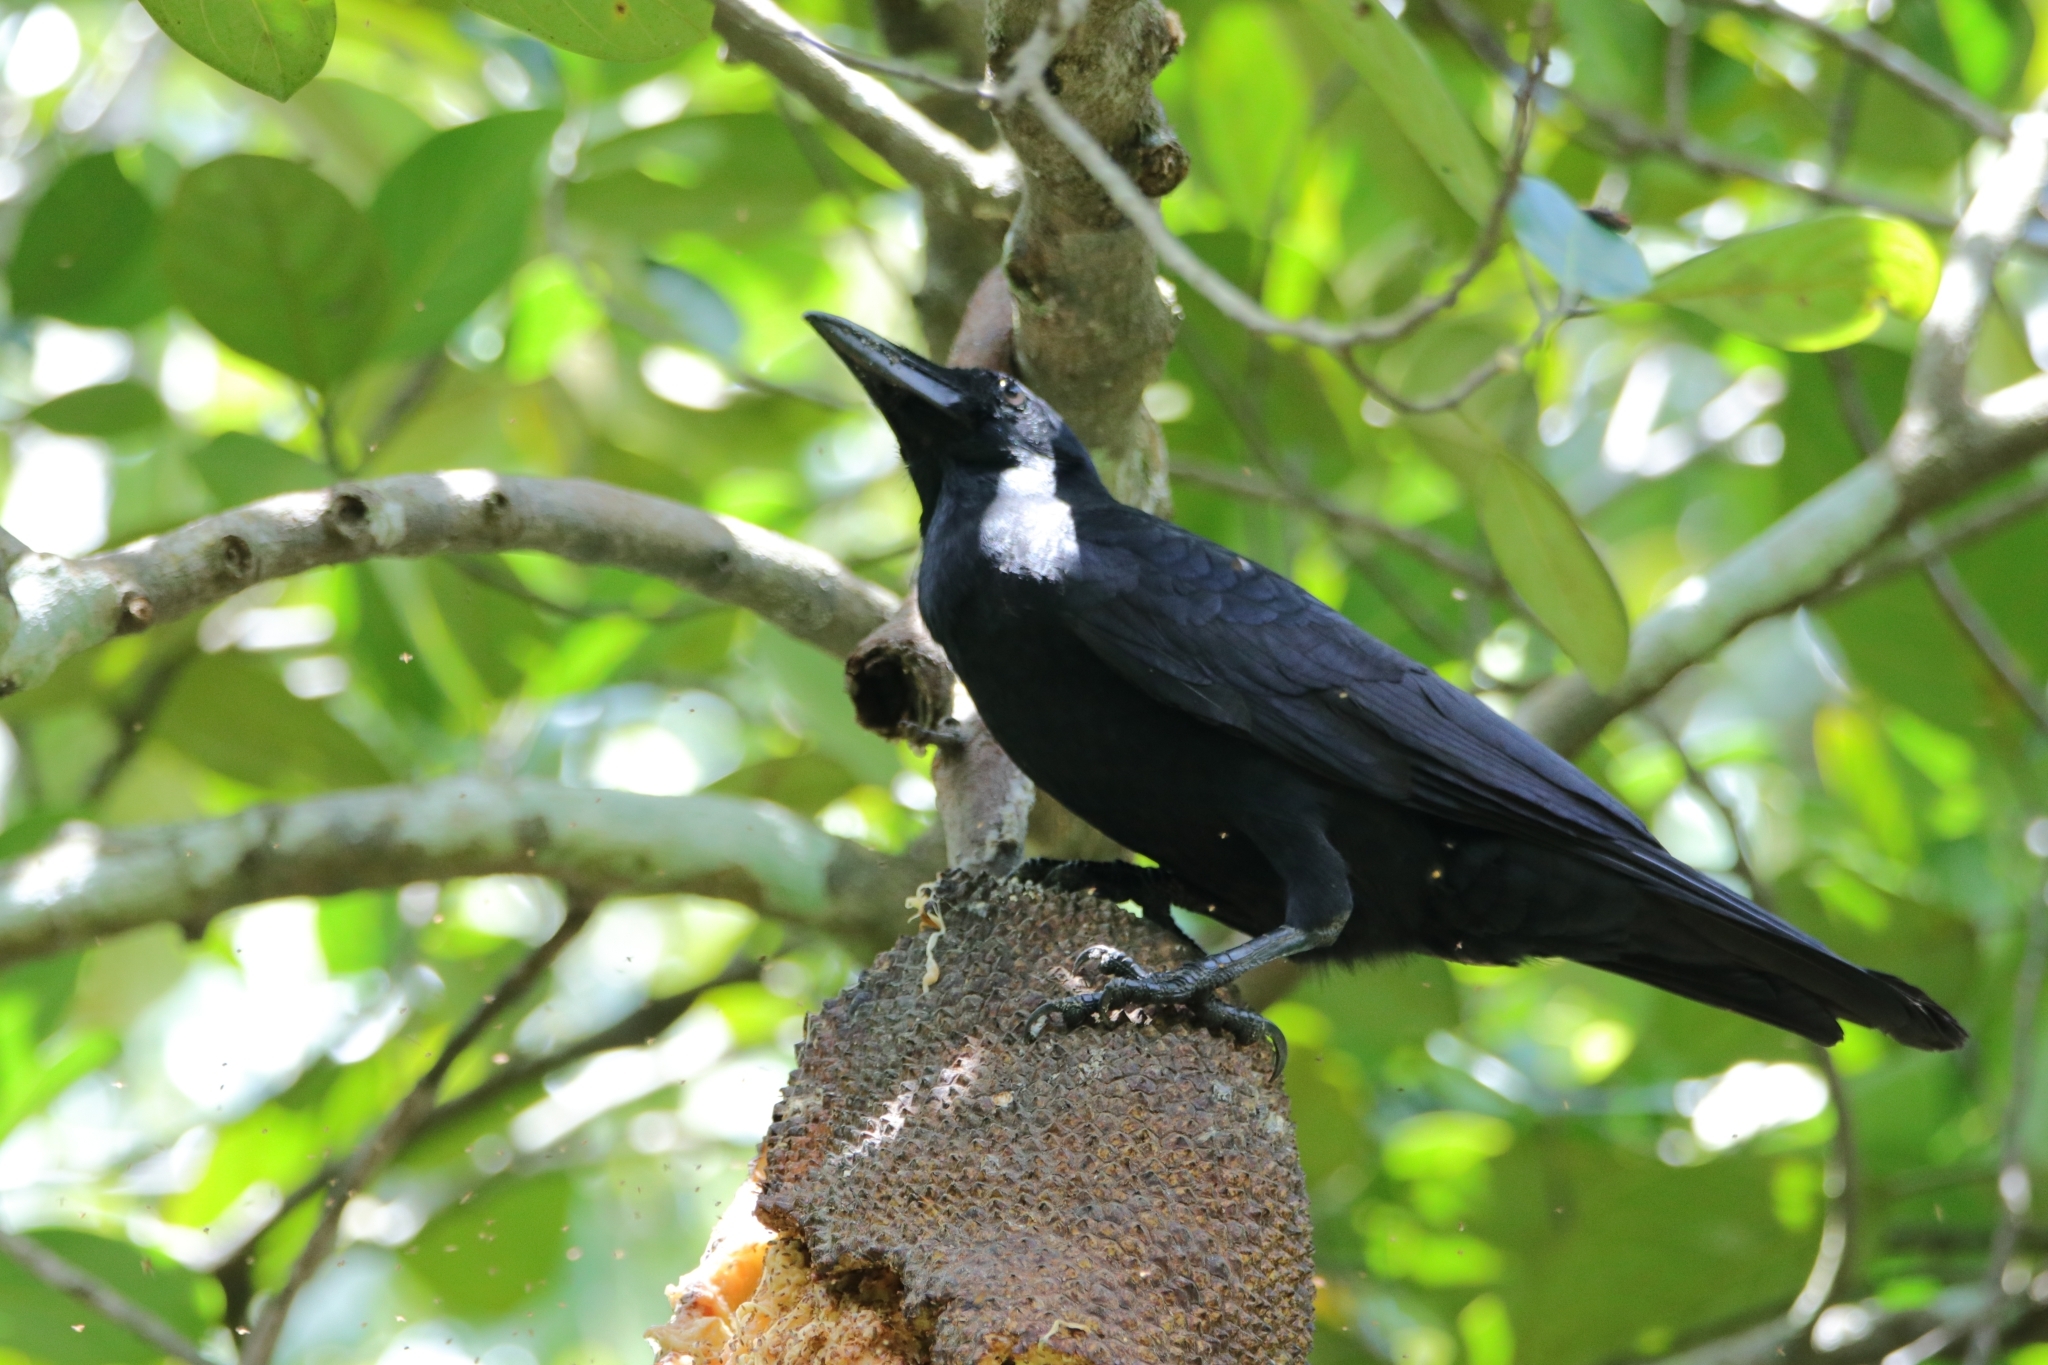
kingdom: Animalia
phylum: Chordata
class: Aves
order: Passeriformes
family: Corvidae
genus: Corvus
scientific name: Corvus macrorhynchos
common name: Large-billed crow
